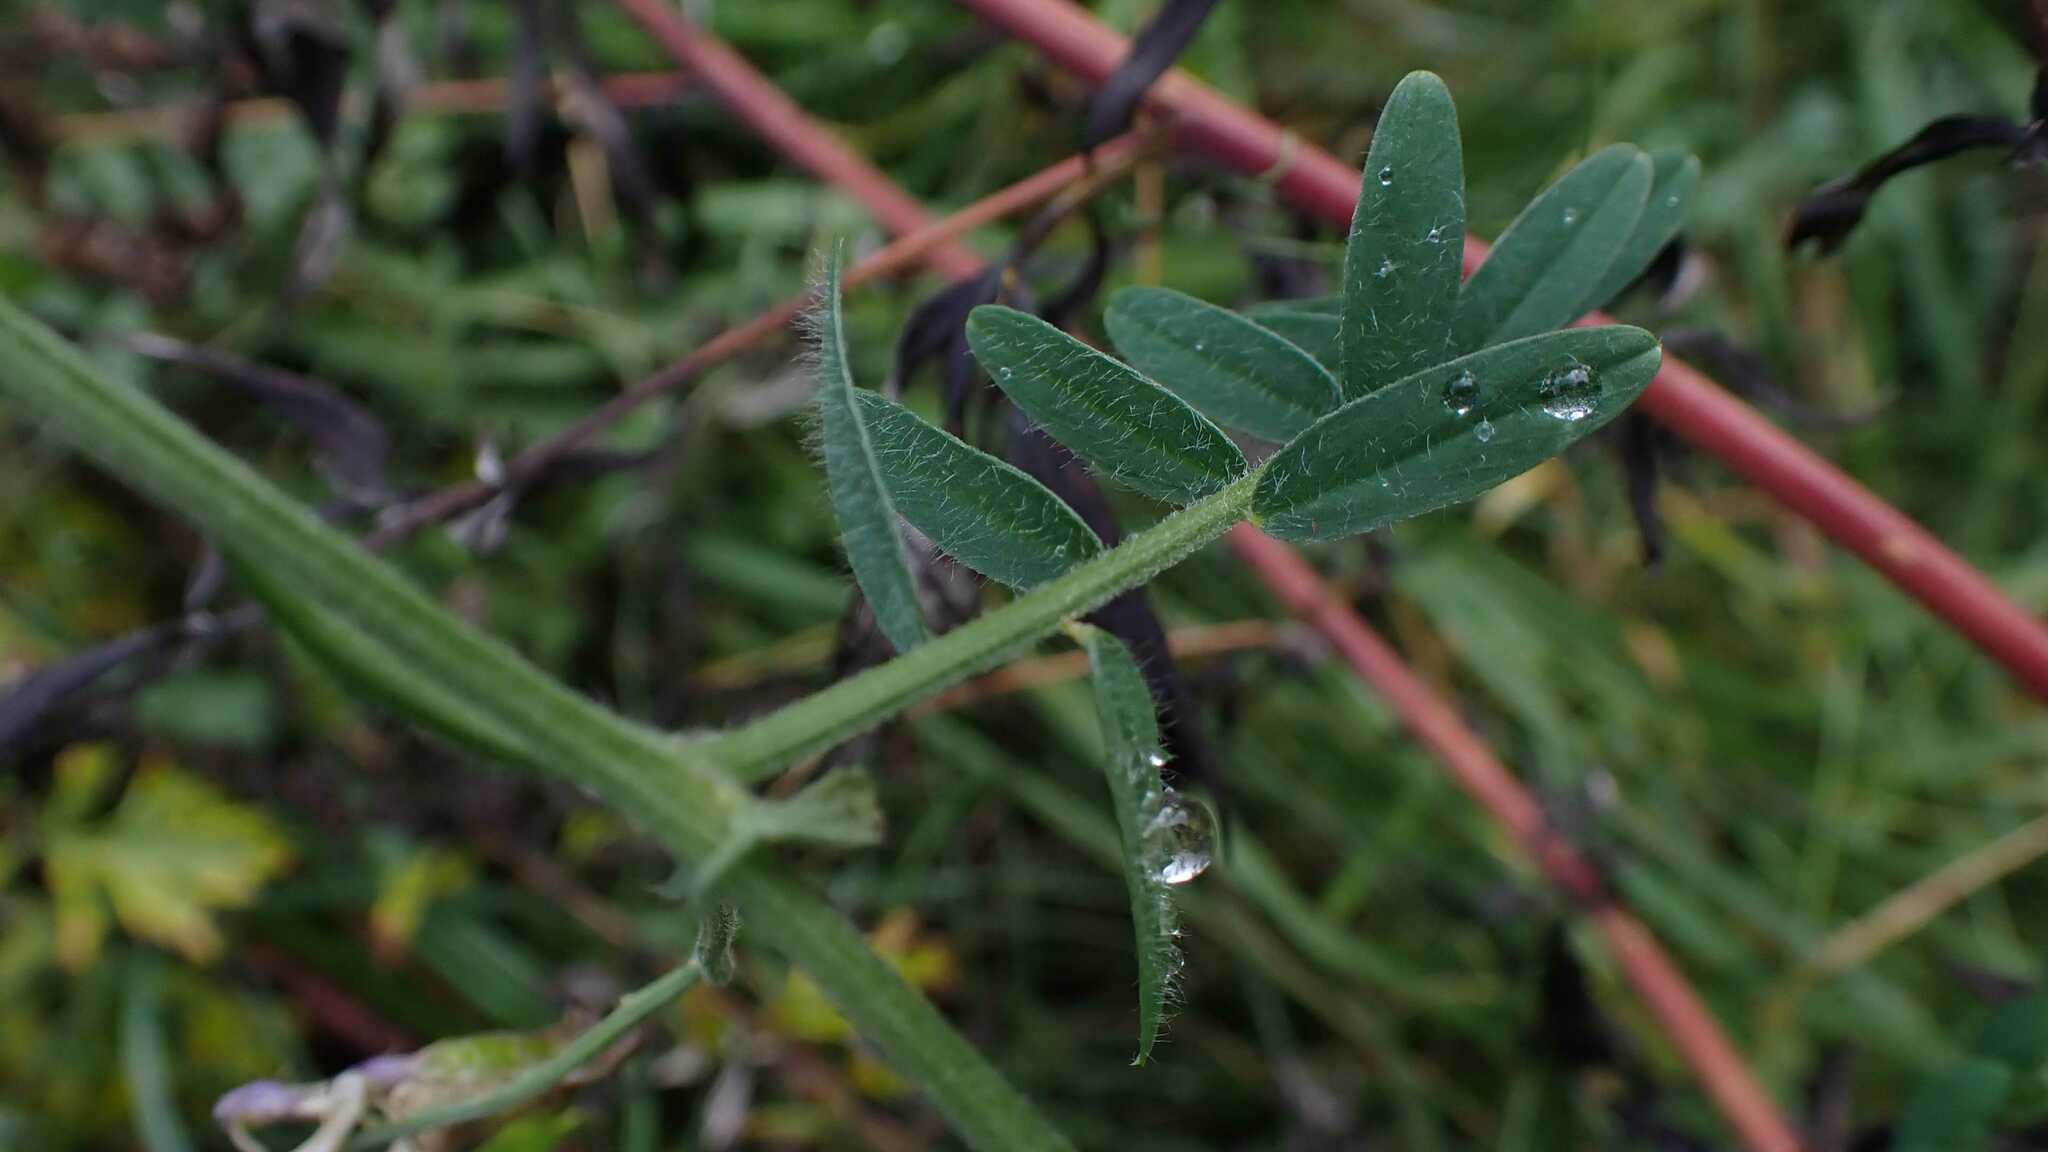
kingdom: Plantae
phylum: Tracheophyta
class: Magnoliopsida
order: Fabales
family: Fabaceae
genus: Vicia
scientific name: Vicia villosa
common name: Fodder vetch
